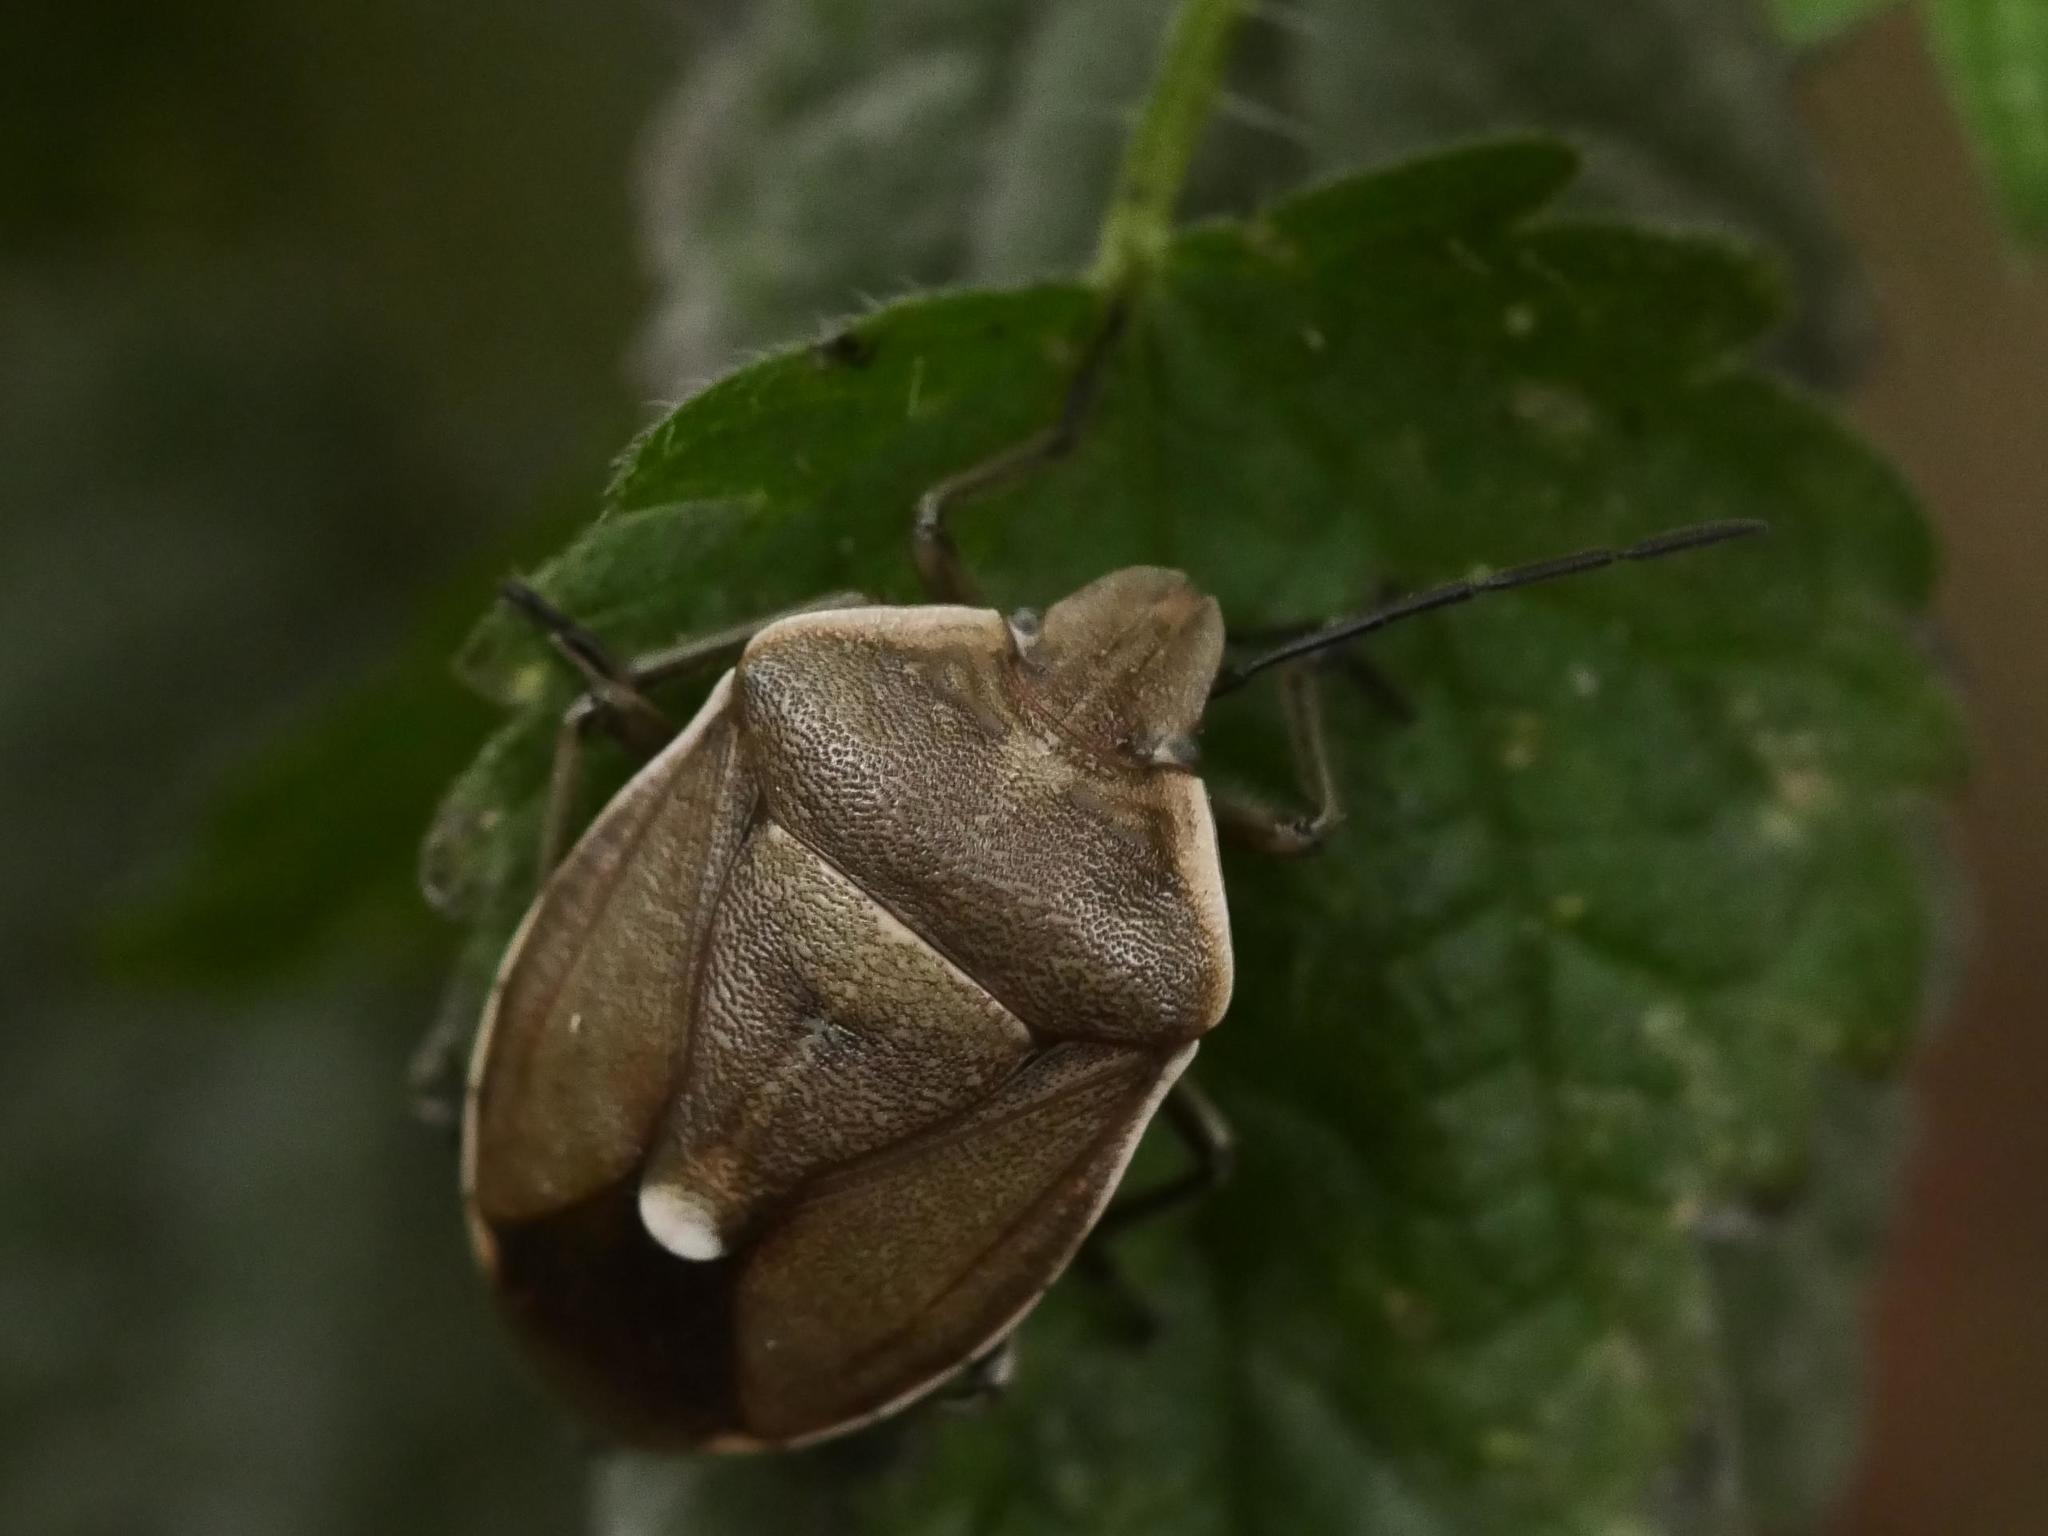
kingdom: Animalia
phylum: Arthropoda
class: Insecta
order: Hemiptera
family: Pentatomidae
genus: Chlorochroa
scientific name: Chlorochroa pinicola
